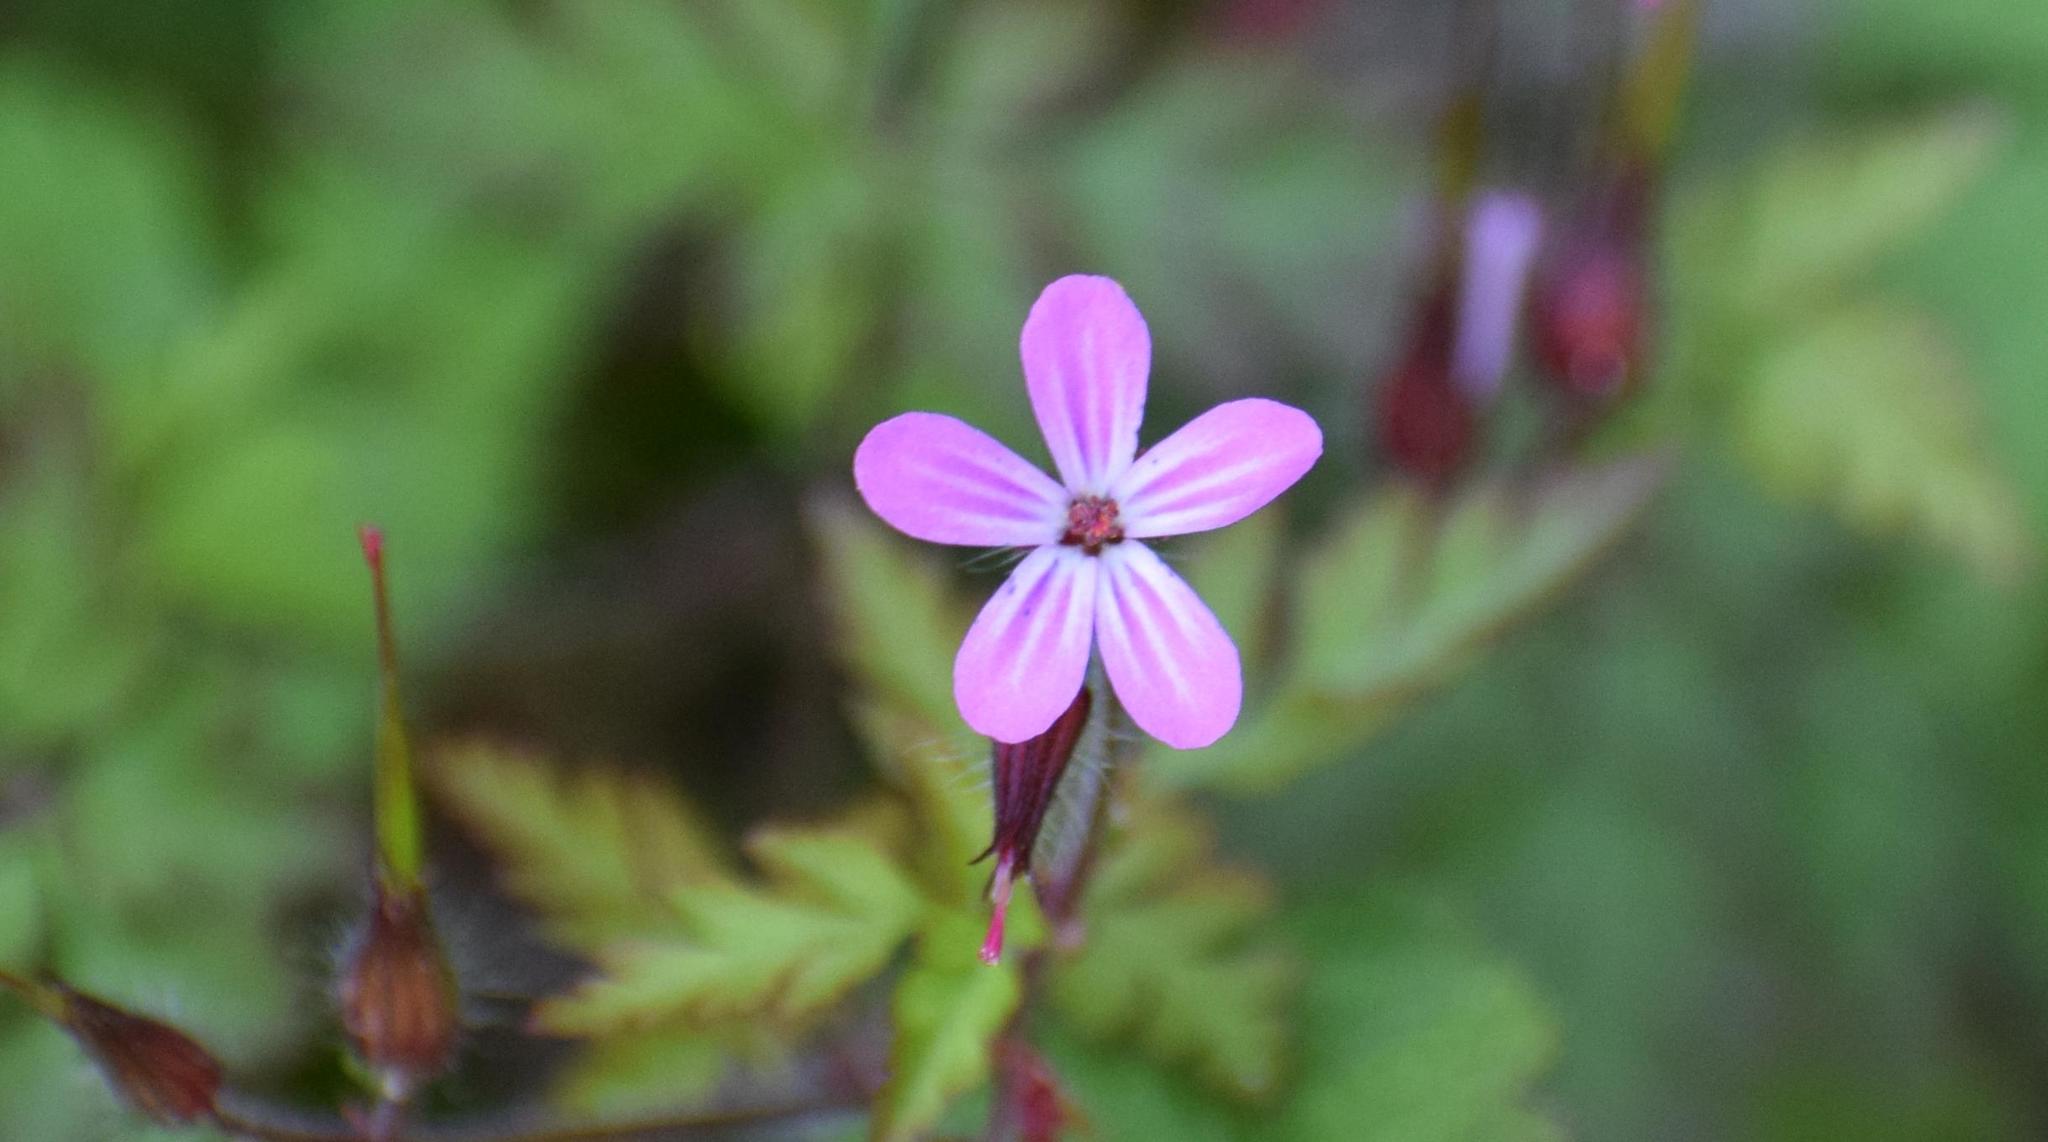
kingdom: Plantae
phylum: Tracheophyta
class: Magnoliopsida
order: Geraniales
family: Geraniaceae
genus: Geranium
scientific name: Geranium robertianum
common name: Herb-robert
